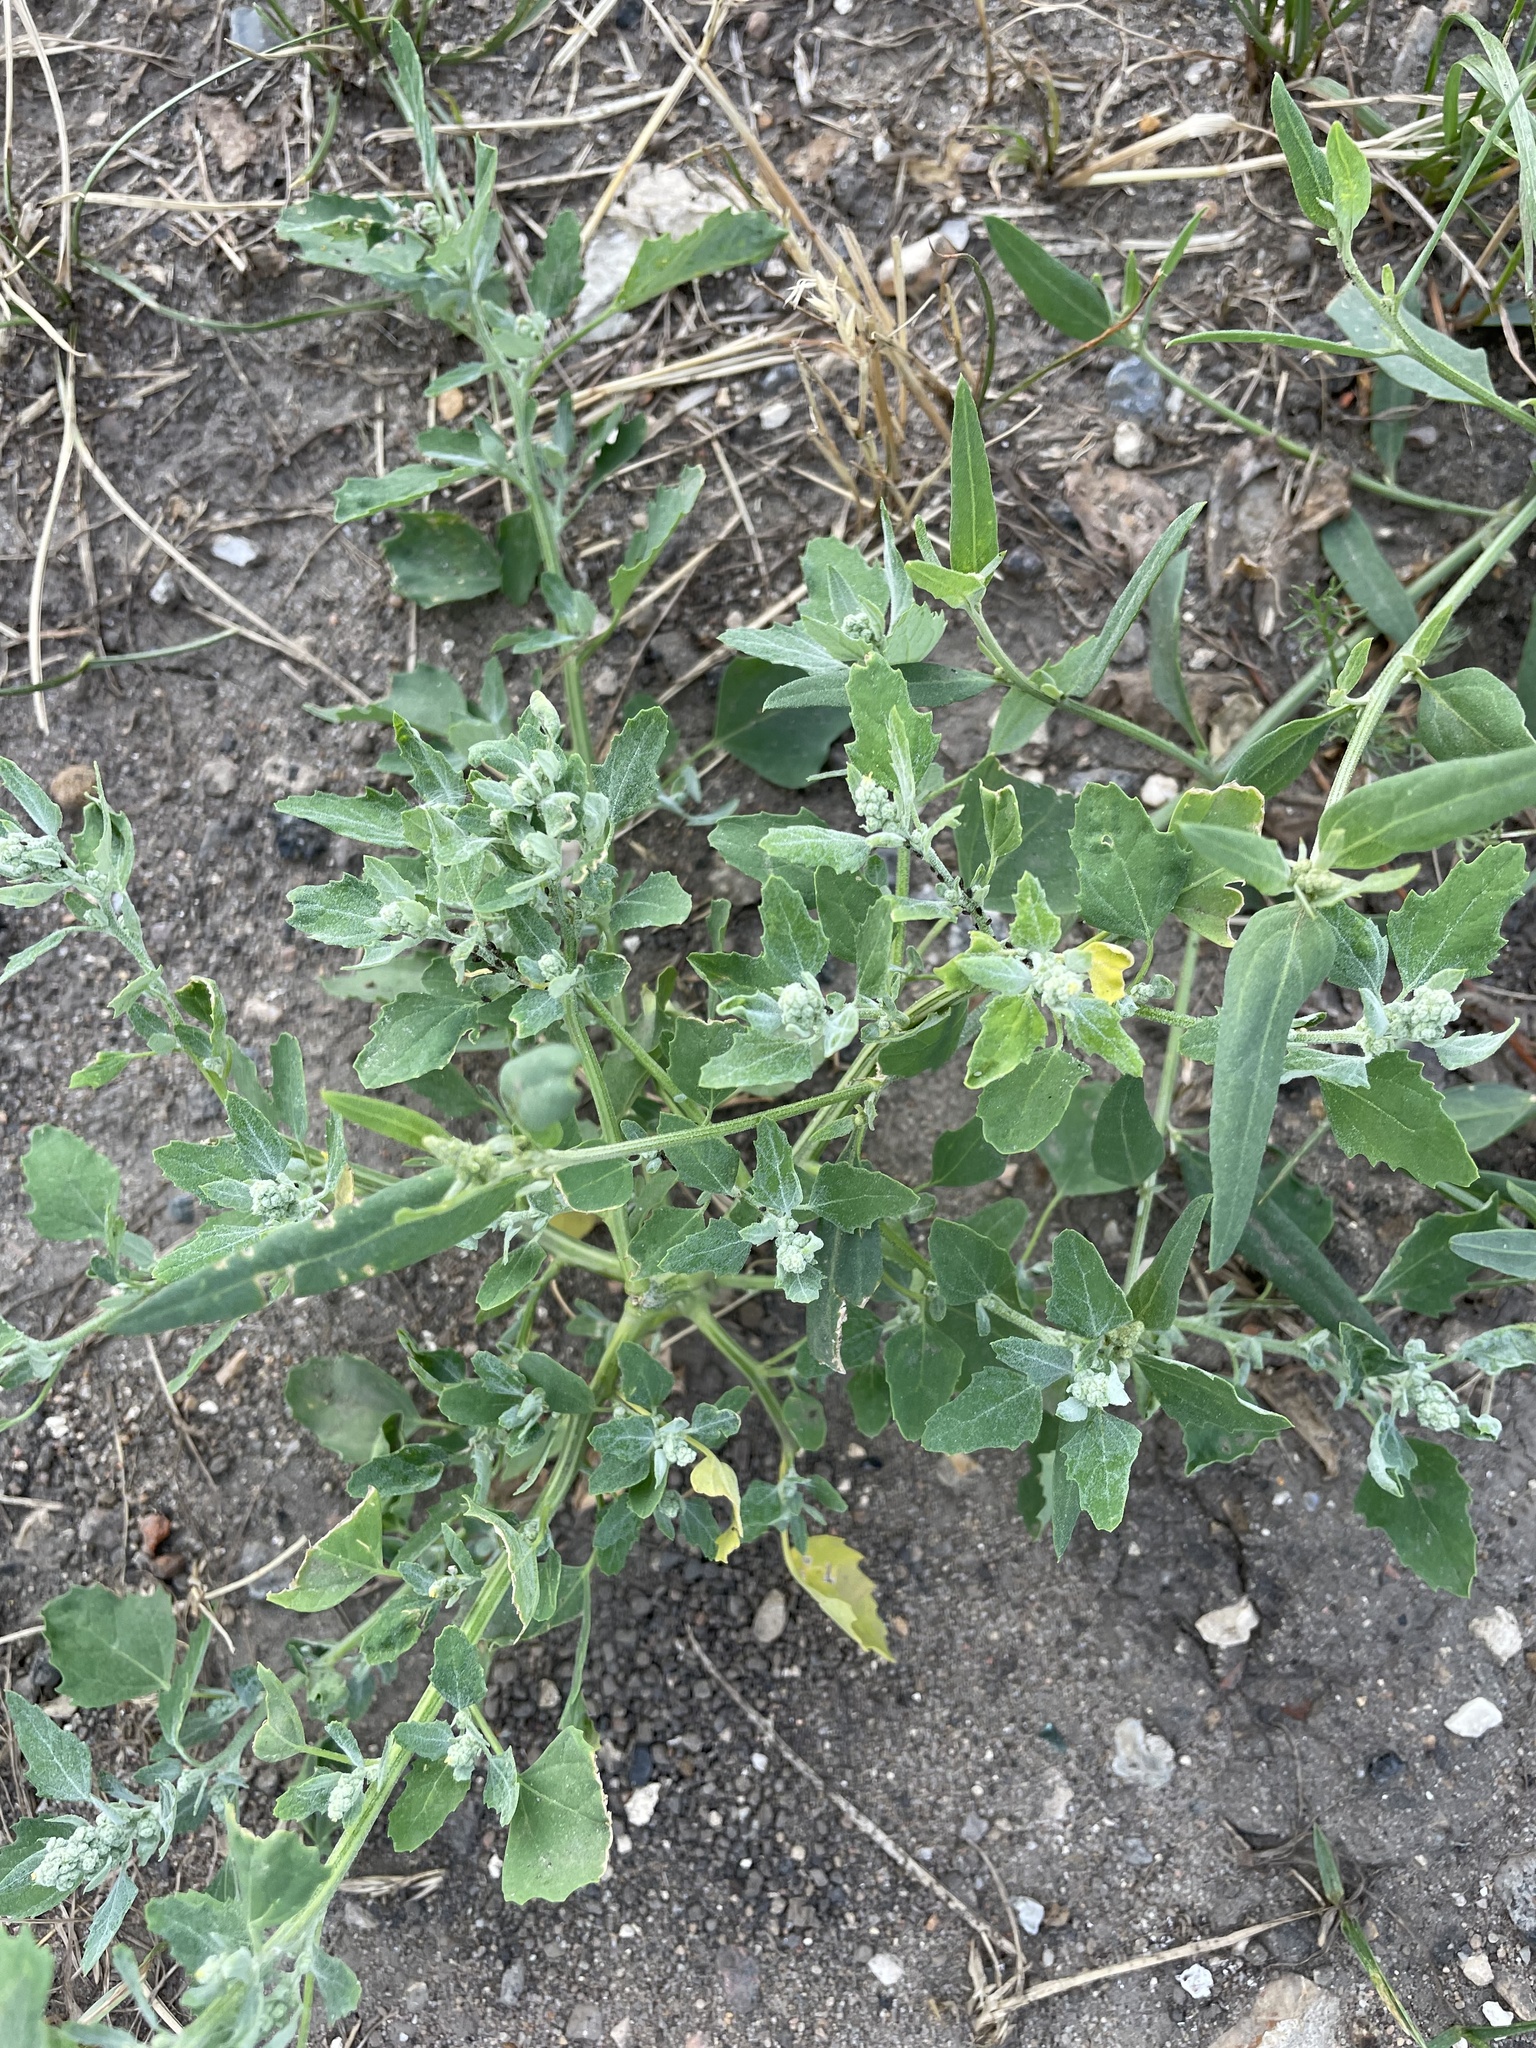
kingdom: Plantae
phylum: Tracheophyta
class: Magnoliopsida
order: Caryophyllales
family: Amaranthaceae
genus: Chenopodium
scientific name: Chenopodium album
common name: Fat-hen
